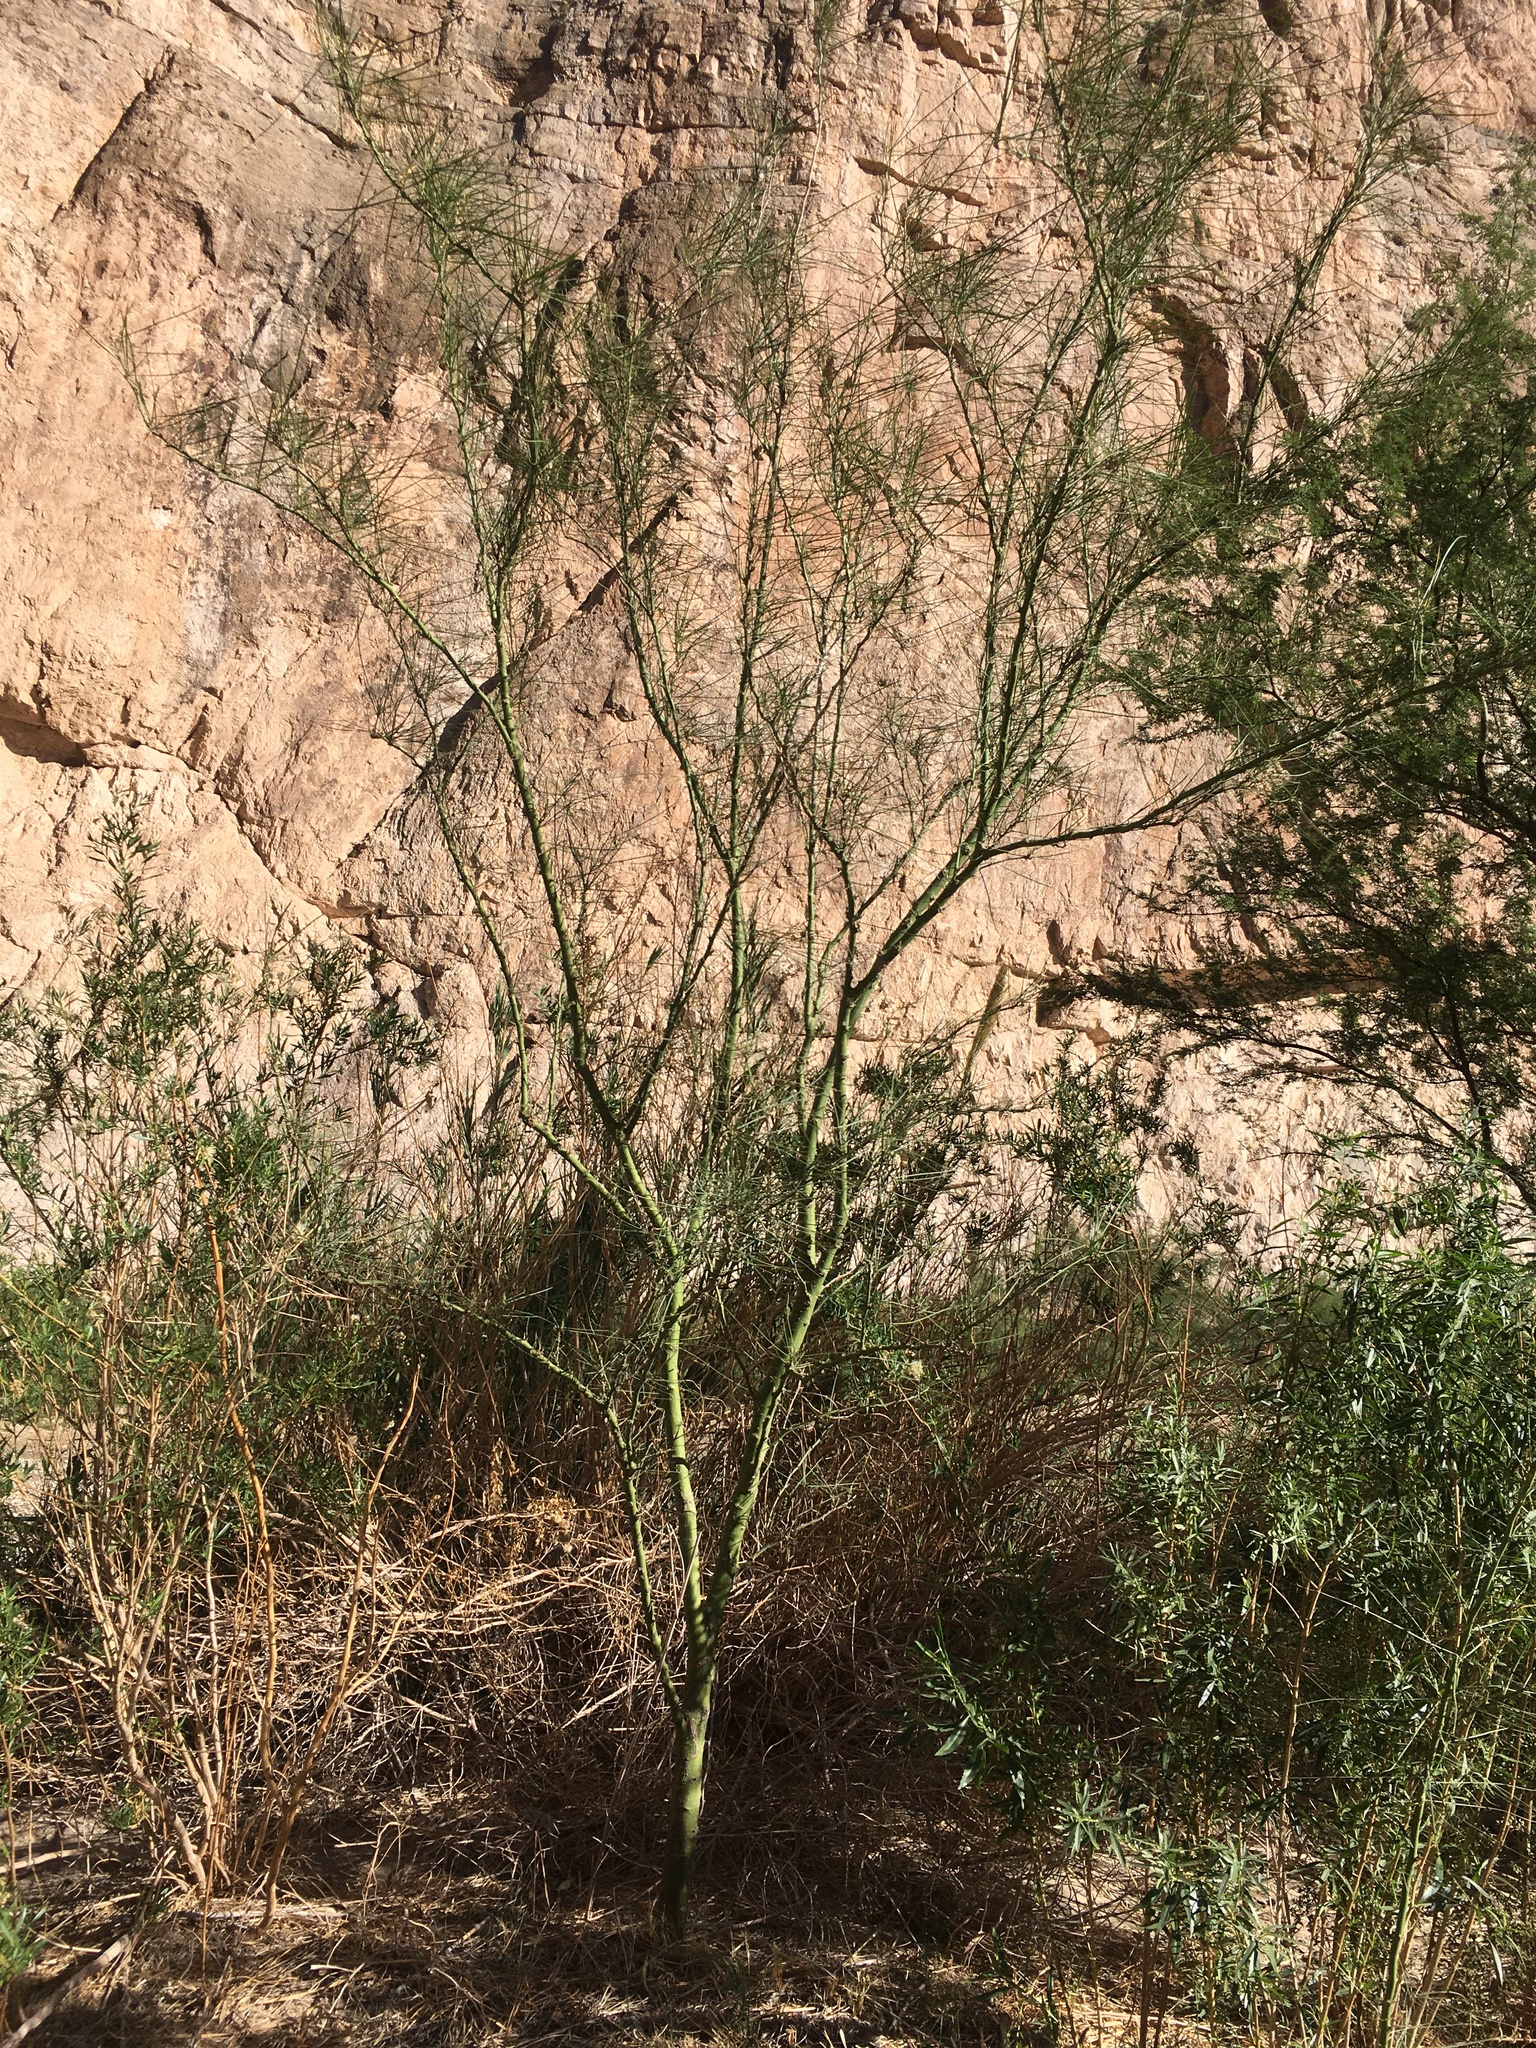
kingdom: Plantae
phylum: Tracheophyta
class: Magnoliopsida
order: Fabales
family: Fabaceae
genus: Parkinsonia
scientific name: Parkinsonia aculeata
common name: Jerusalem thorn
